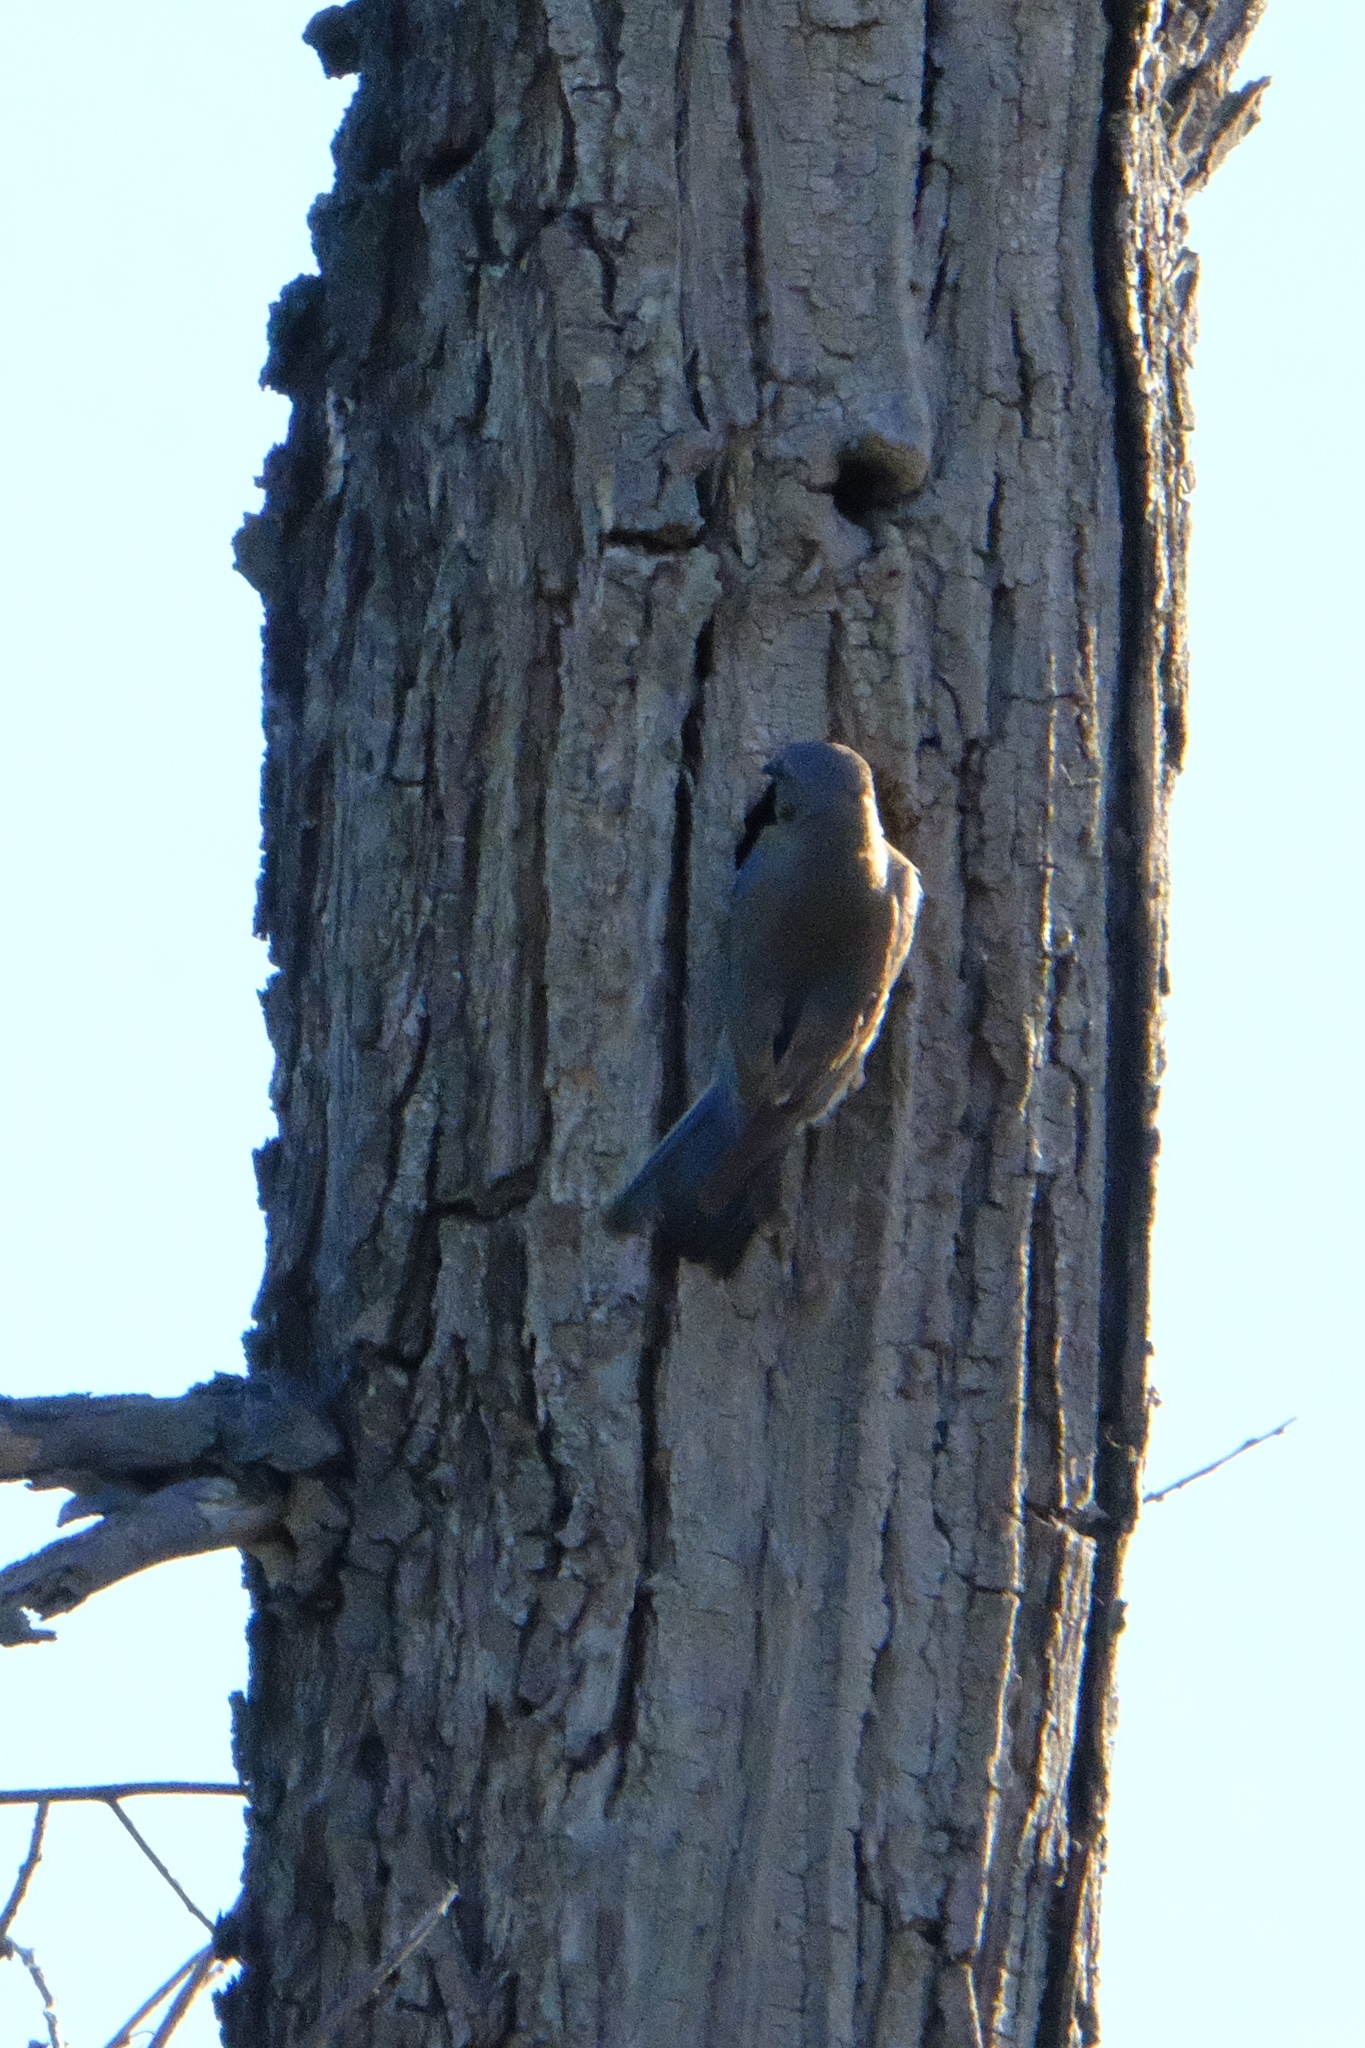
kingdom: Animalia
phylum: Chordata
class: Aves
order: Passeriformes
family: Turdidae
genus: Sialia
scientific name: Sialia mexicana
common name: Western bluebird
